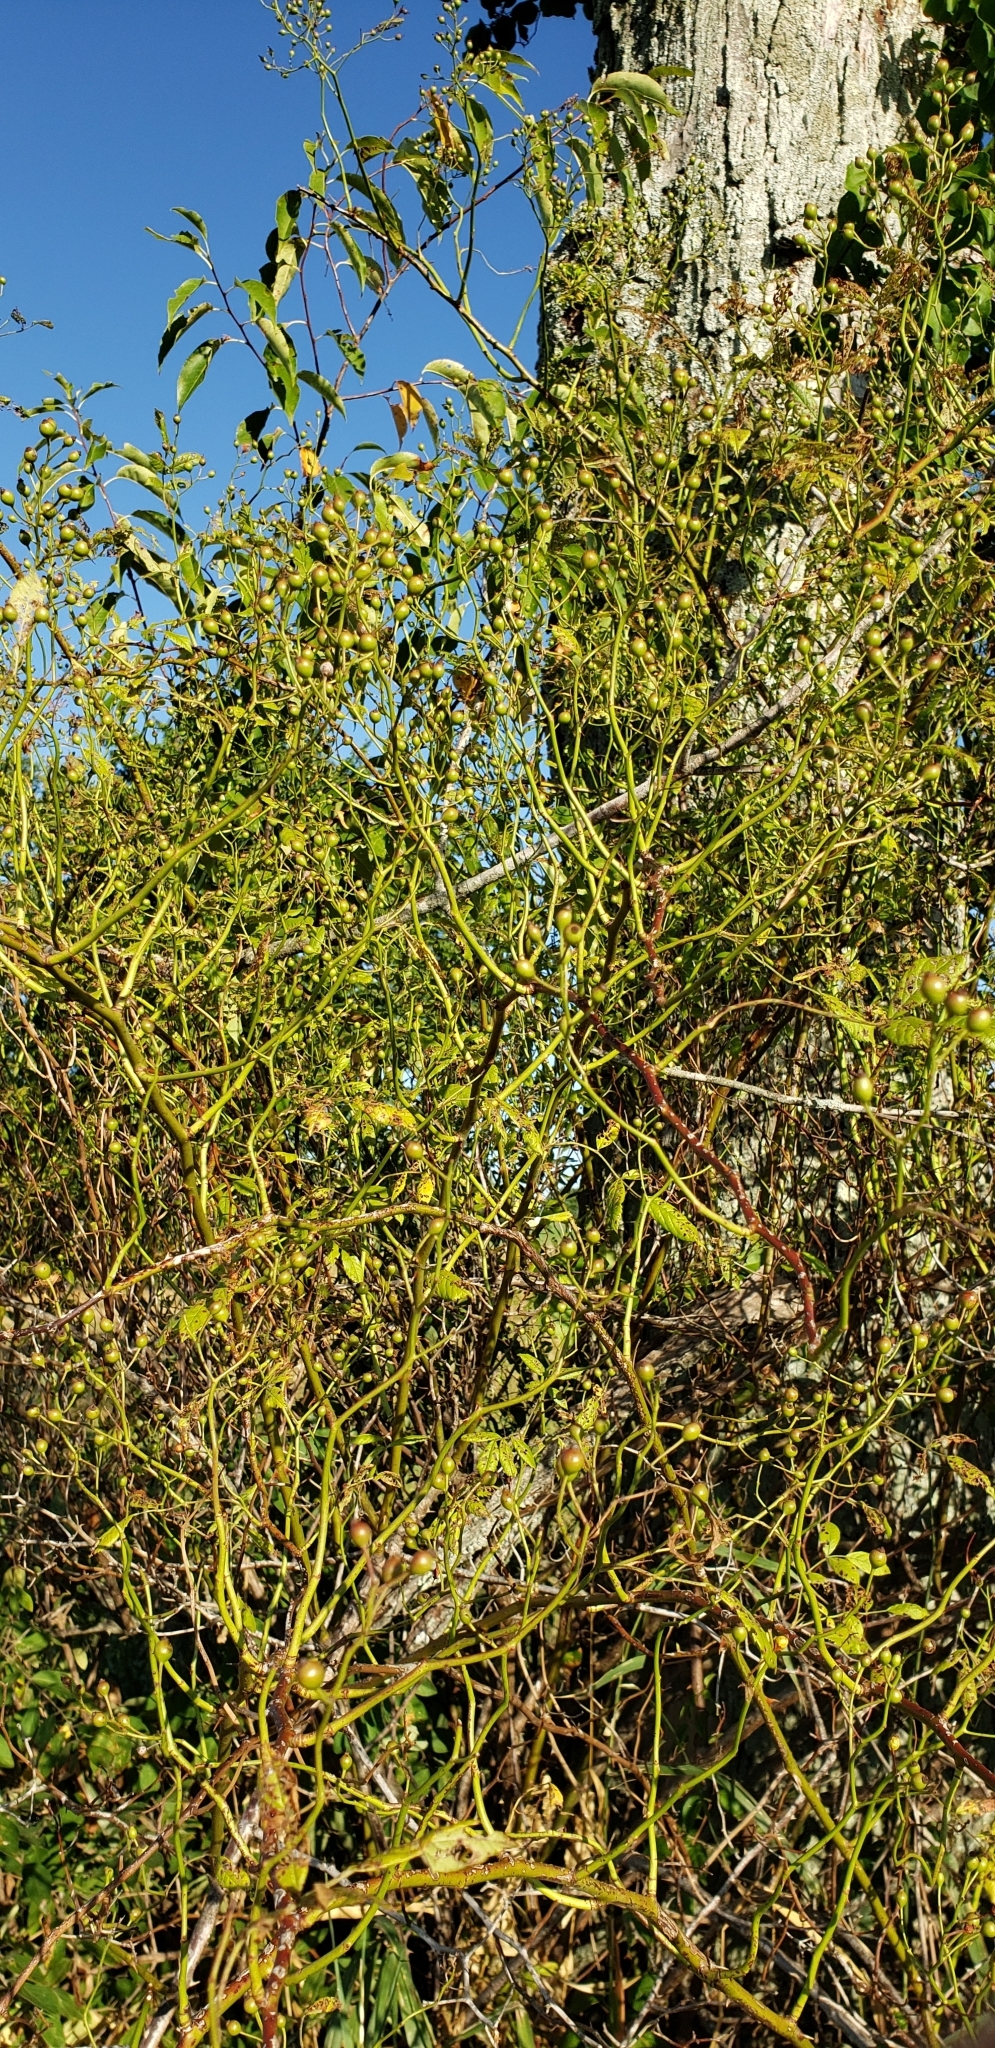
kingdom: Plantae
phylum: Tracheophyta
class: Magnoliopsida
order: Rosales
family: Rosaceae
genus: Rosa
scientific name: Rosa multiflora
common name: Multiflora rose
